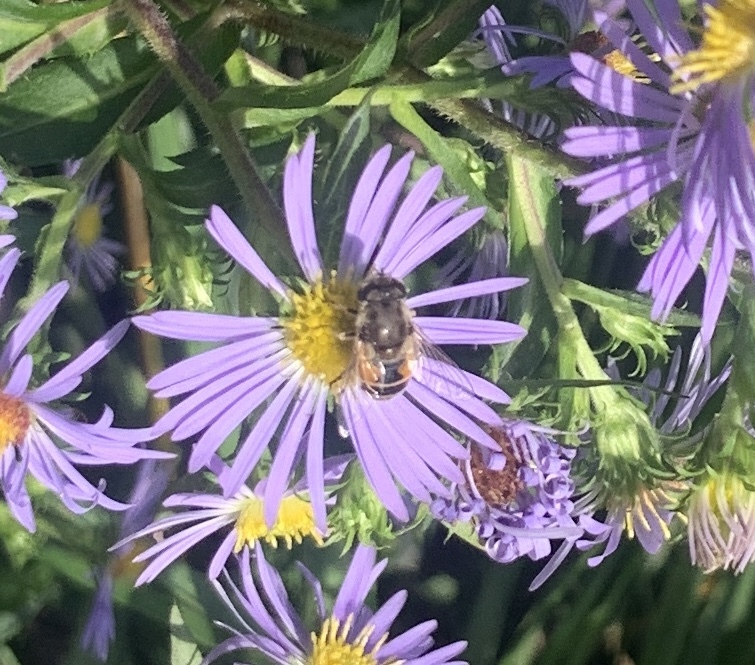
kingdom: Animalia
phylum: Arthropoda
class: Insecta
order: Diptera
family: Syrphidae
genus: Eristalis
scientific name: Eristalis arbustorum
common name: Hover fly
